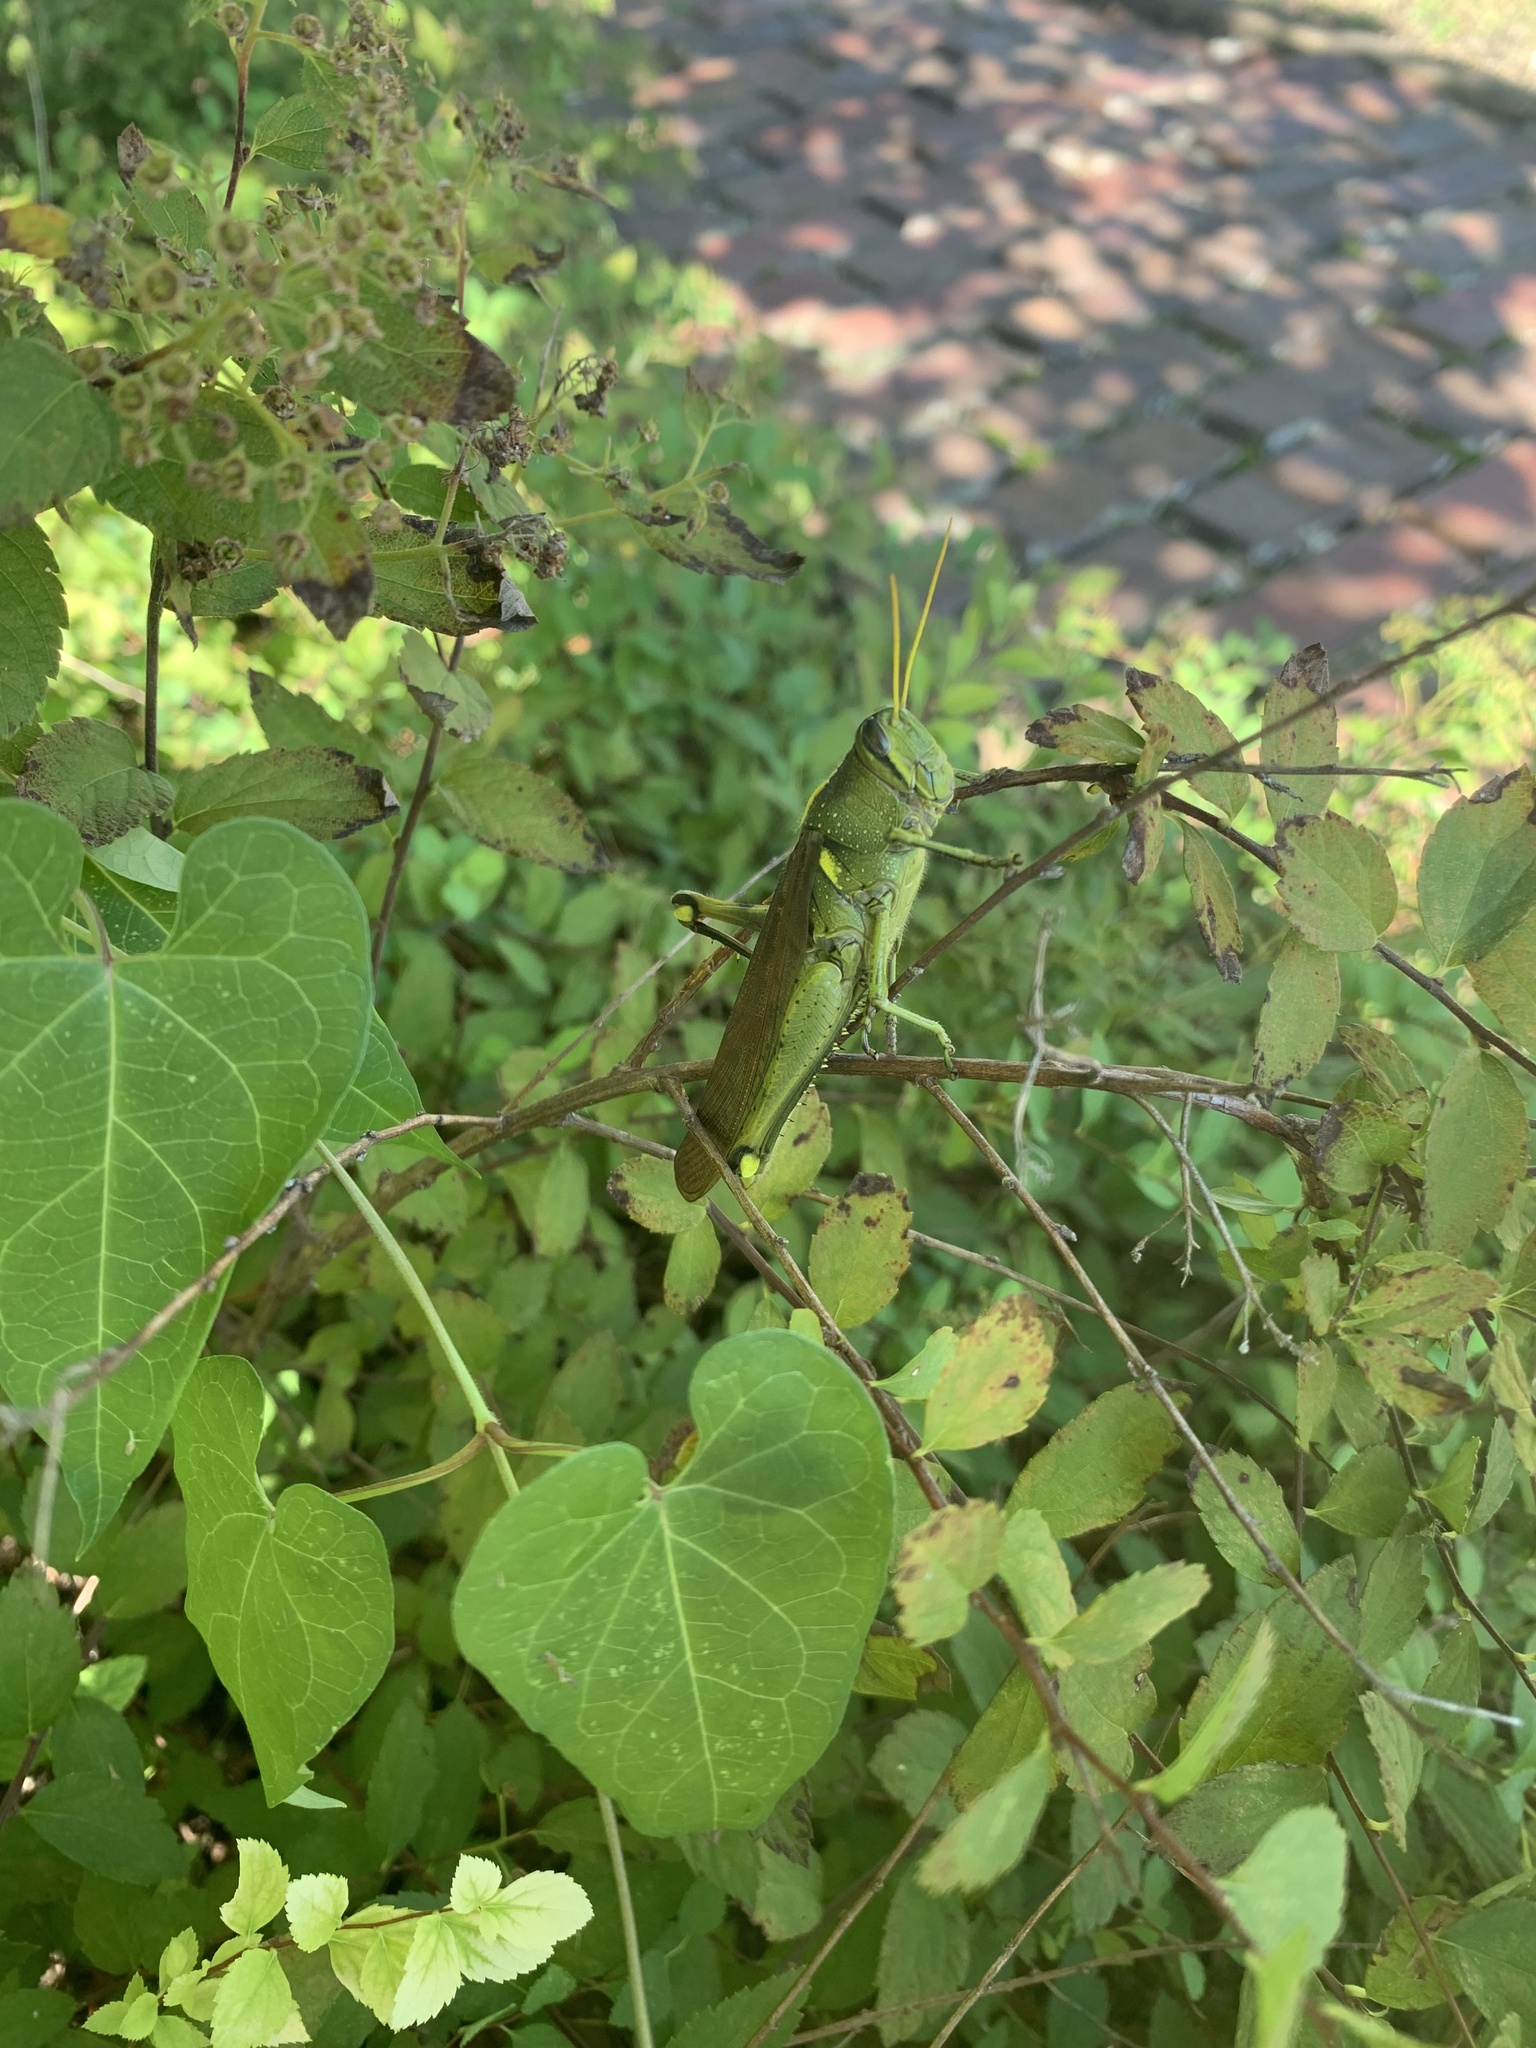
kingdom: Animalia
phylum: Arthropoda
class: Insecta
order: Orthoptera
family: Acrididae
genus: Schistocerca
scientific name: Schistocerca obscura
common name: Obscure bird grasshopper
